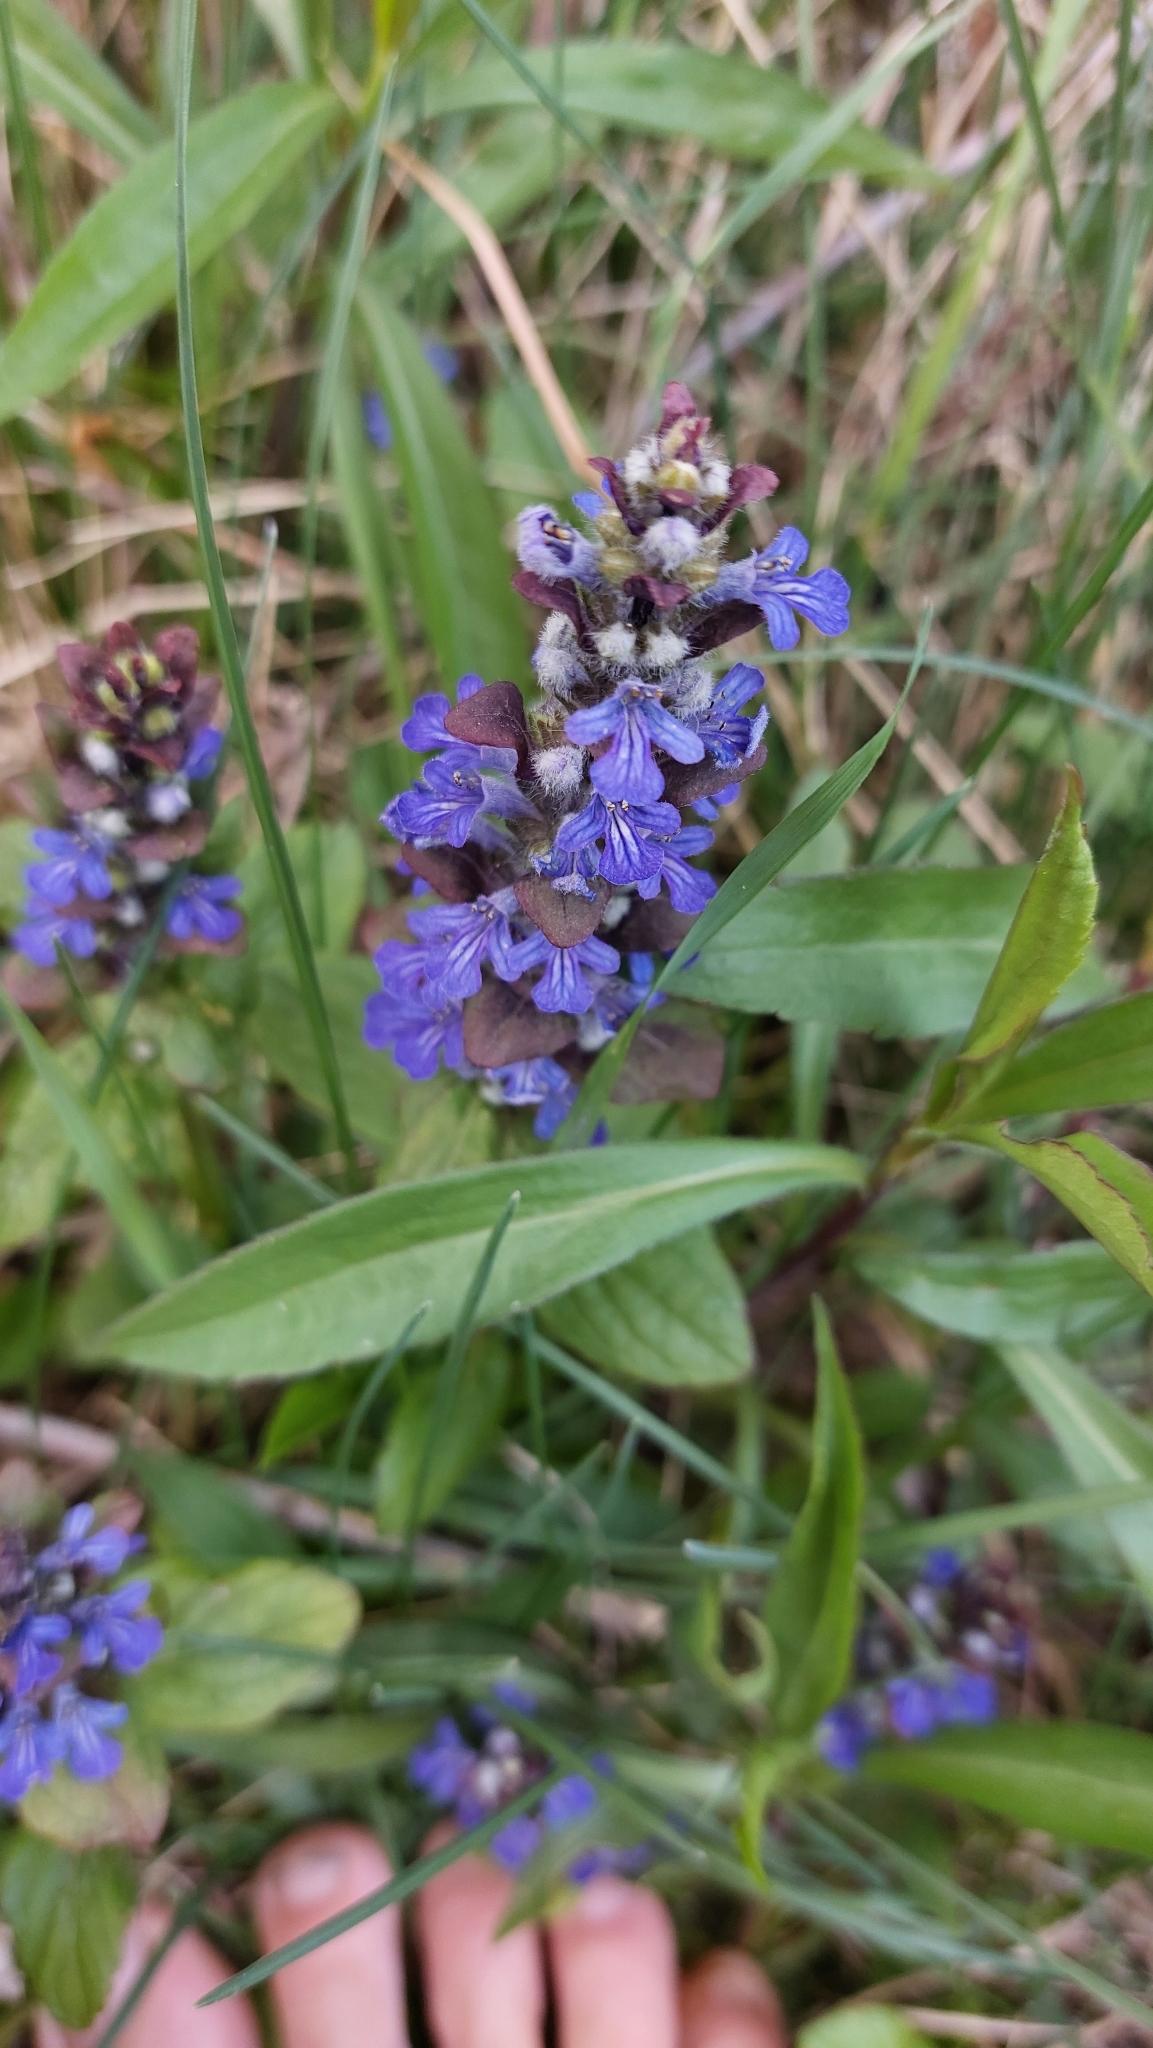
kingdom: Plantae
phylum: Tracheophyta
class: Magnoliopsida
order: Lamiales
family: Lamiaceae
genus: Ajuga
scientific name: Ajuga reptans
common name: Bugle
